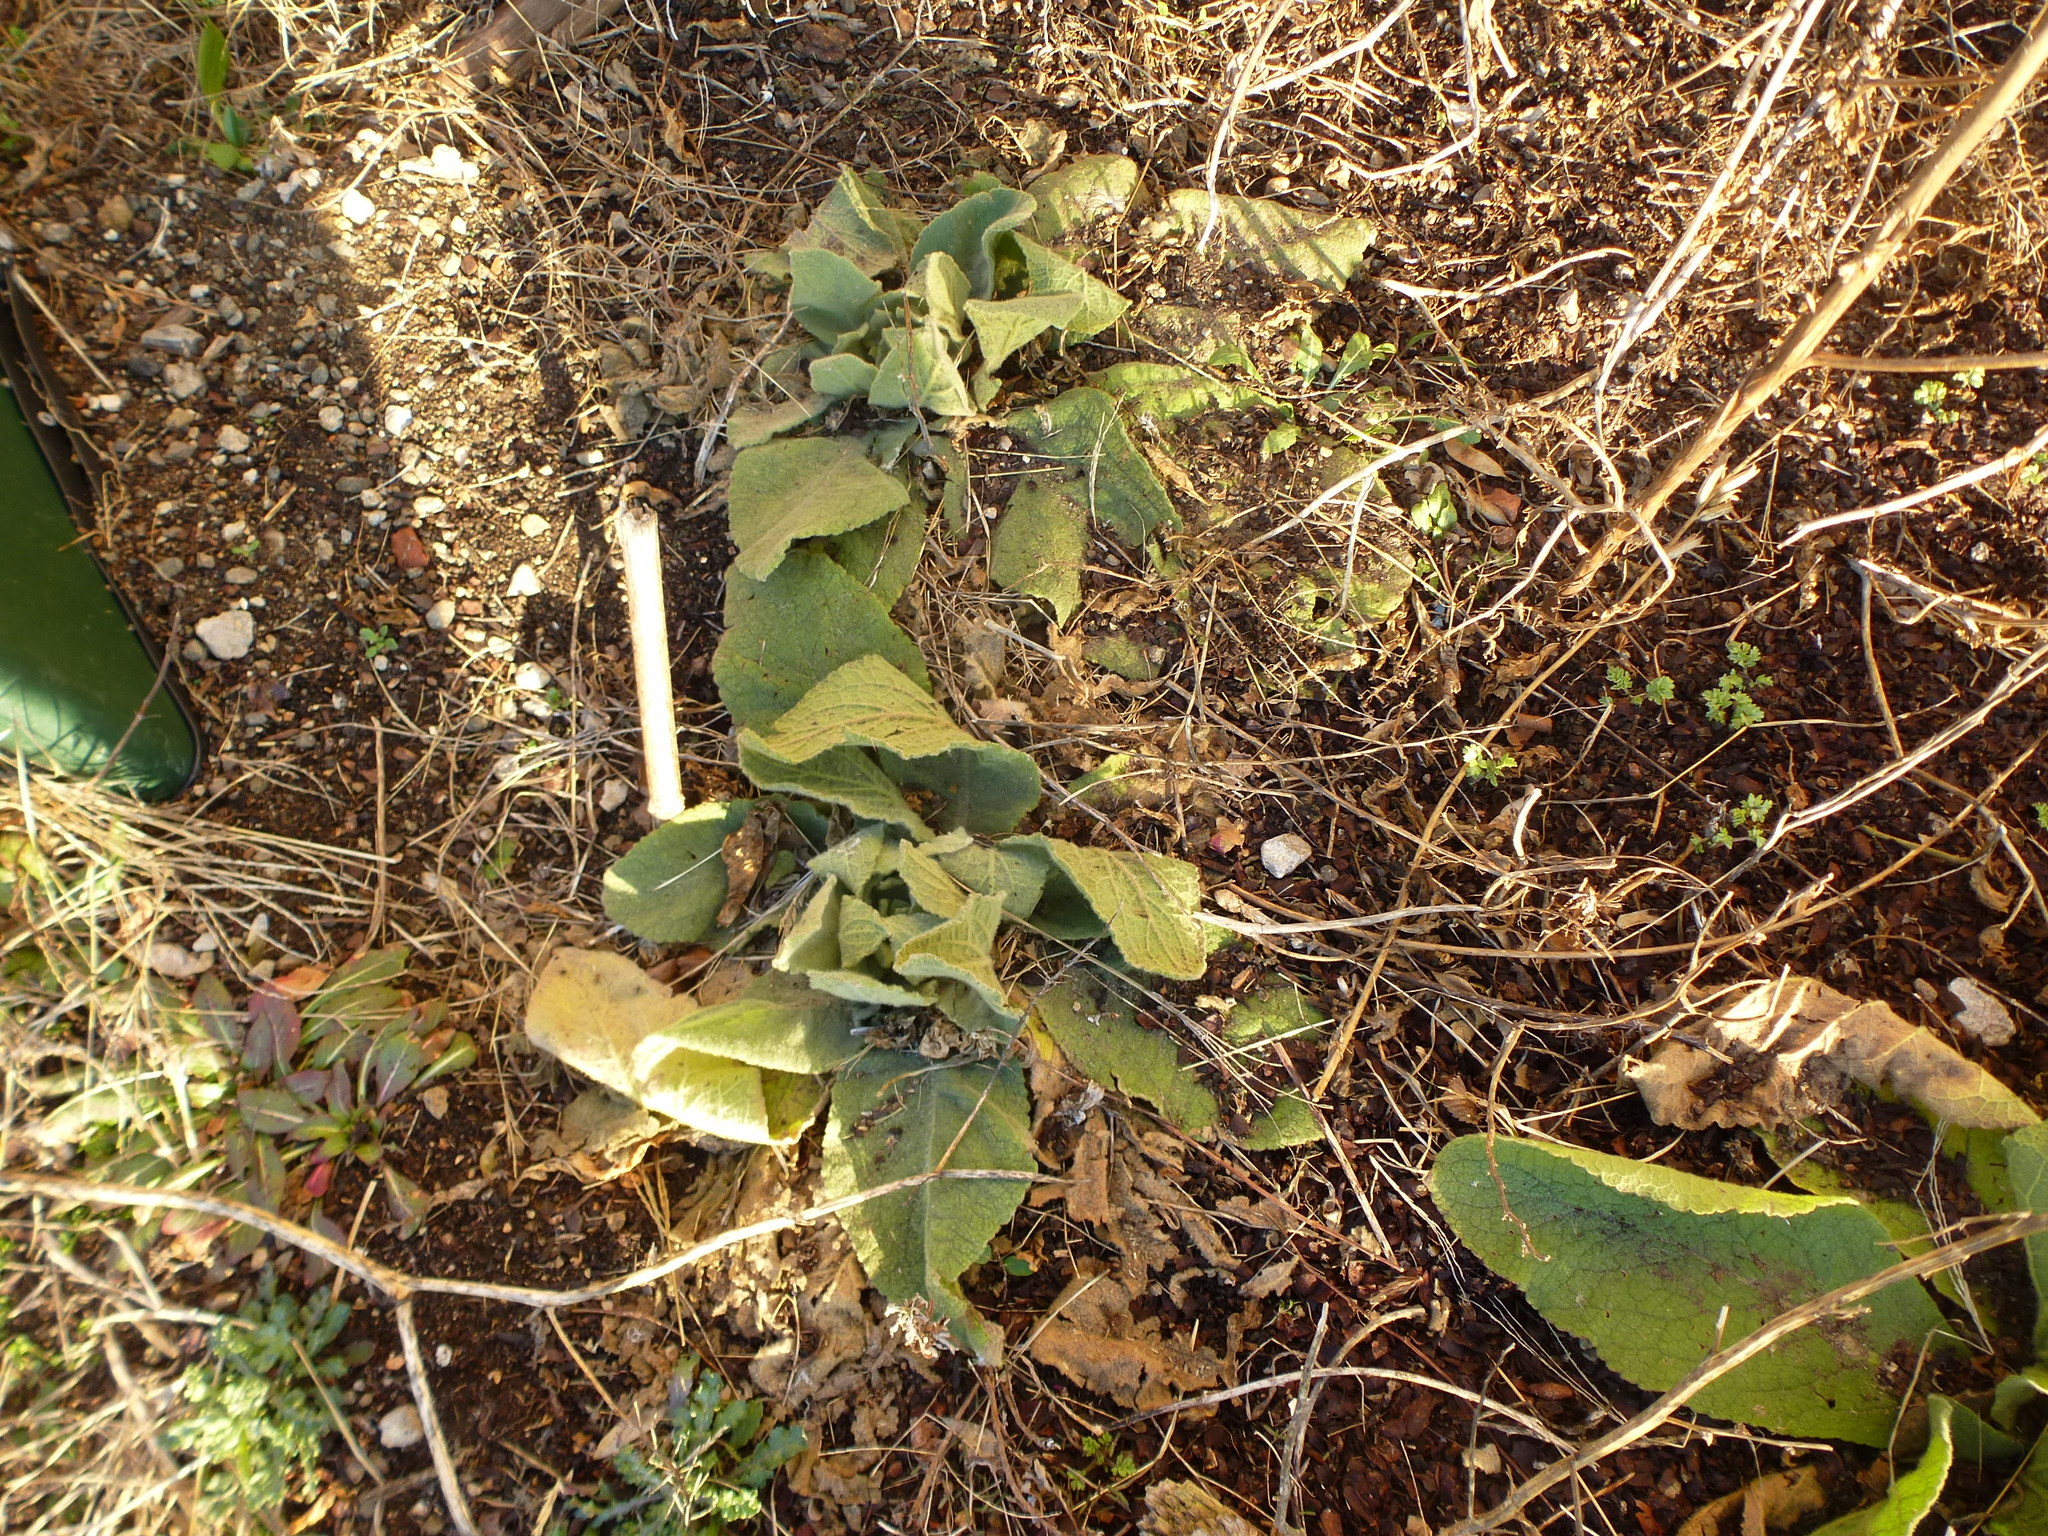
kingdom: Plantae
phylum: Tracheophyta
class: Magnoliopsida
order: Lamiales
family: Scrophulariaceae
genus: Verbascum
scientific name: Verbascum thapsus
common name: Common mullein
